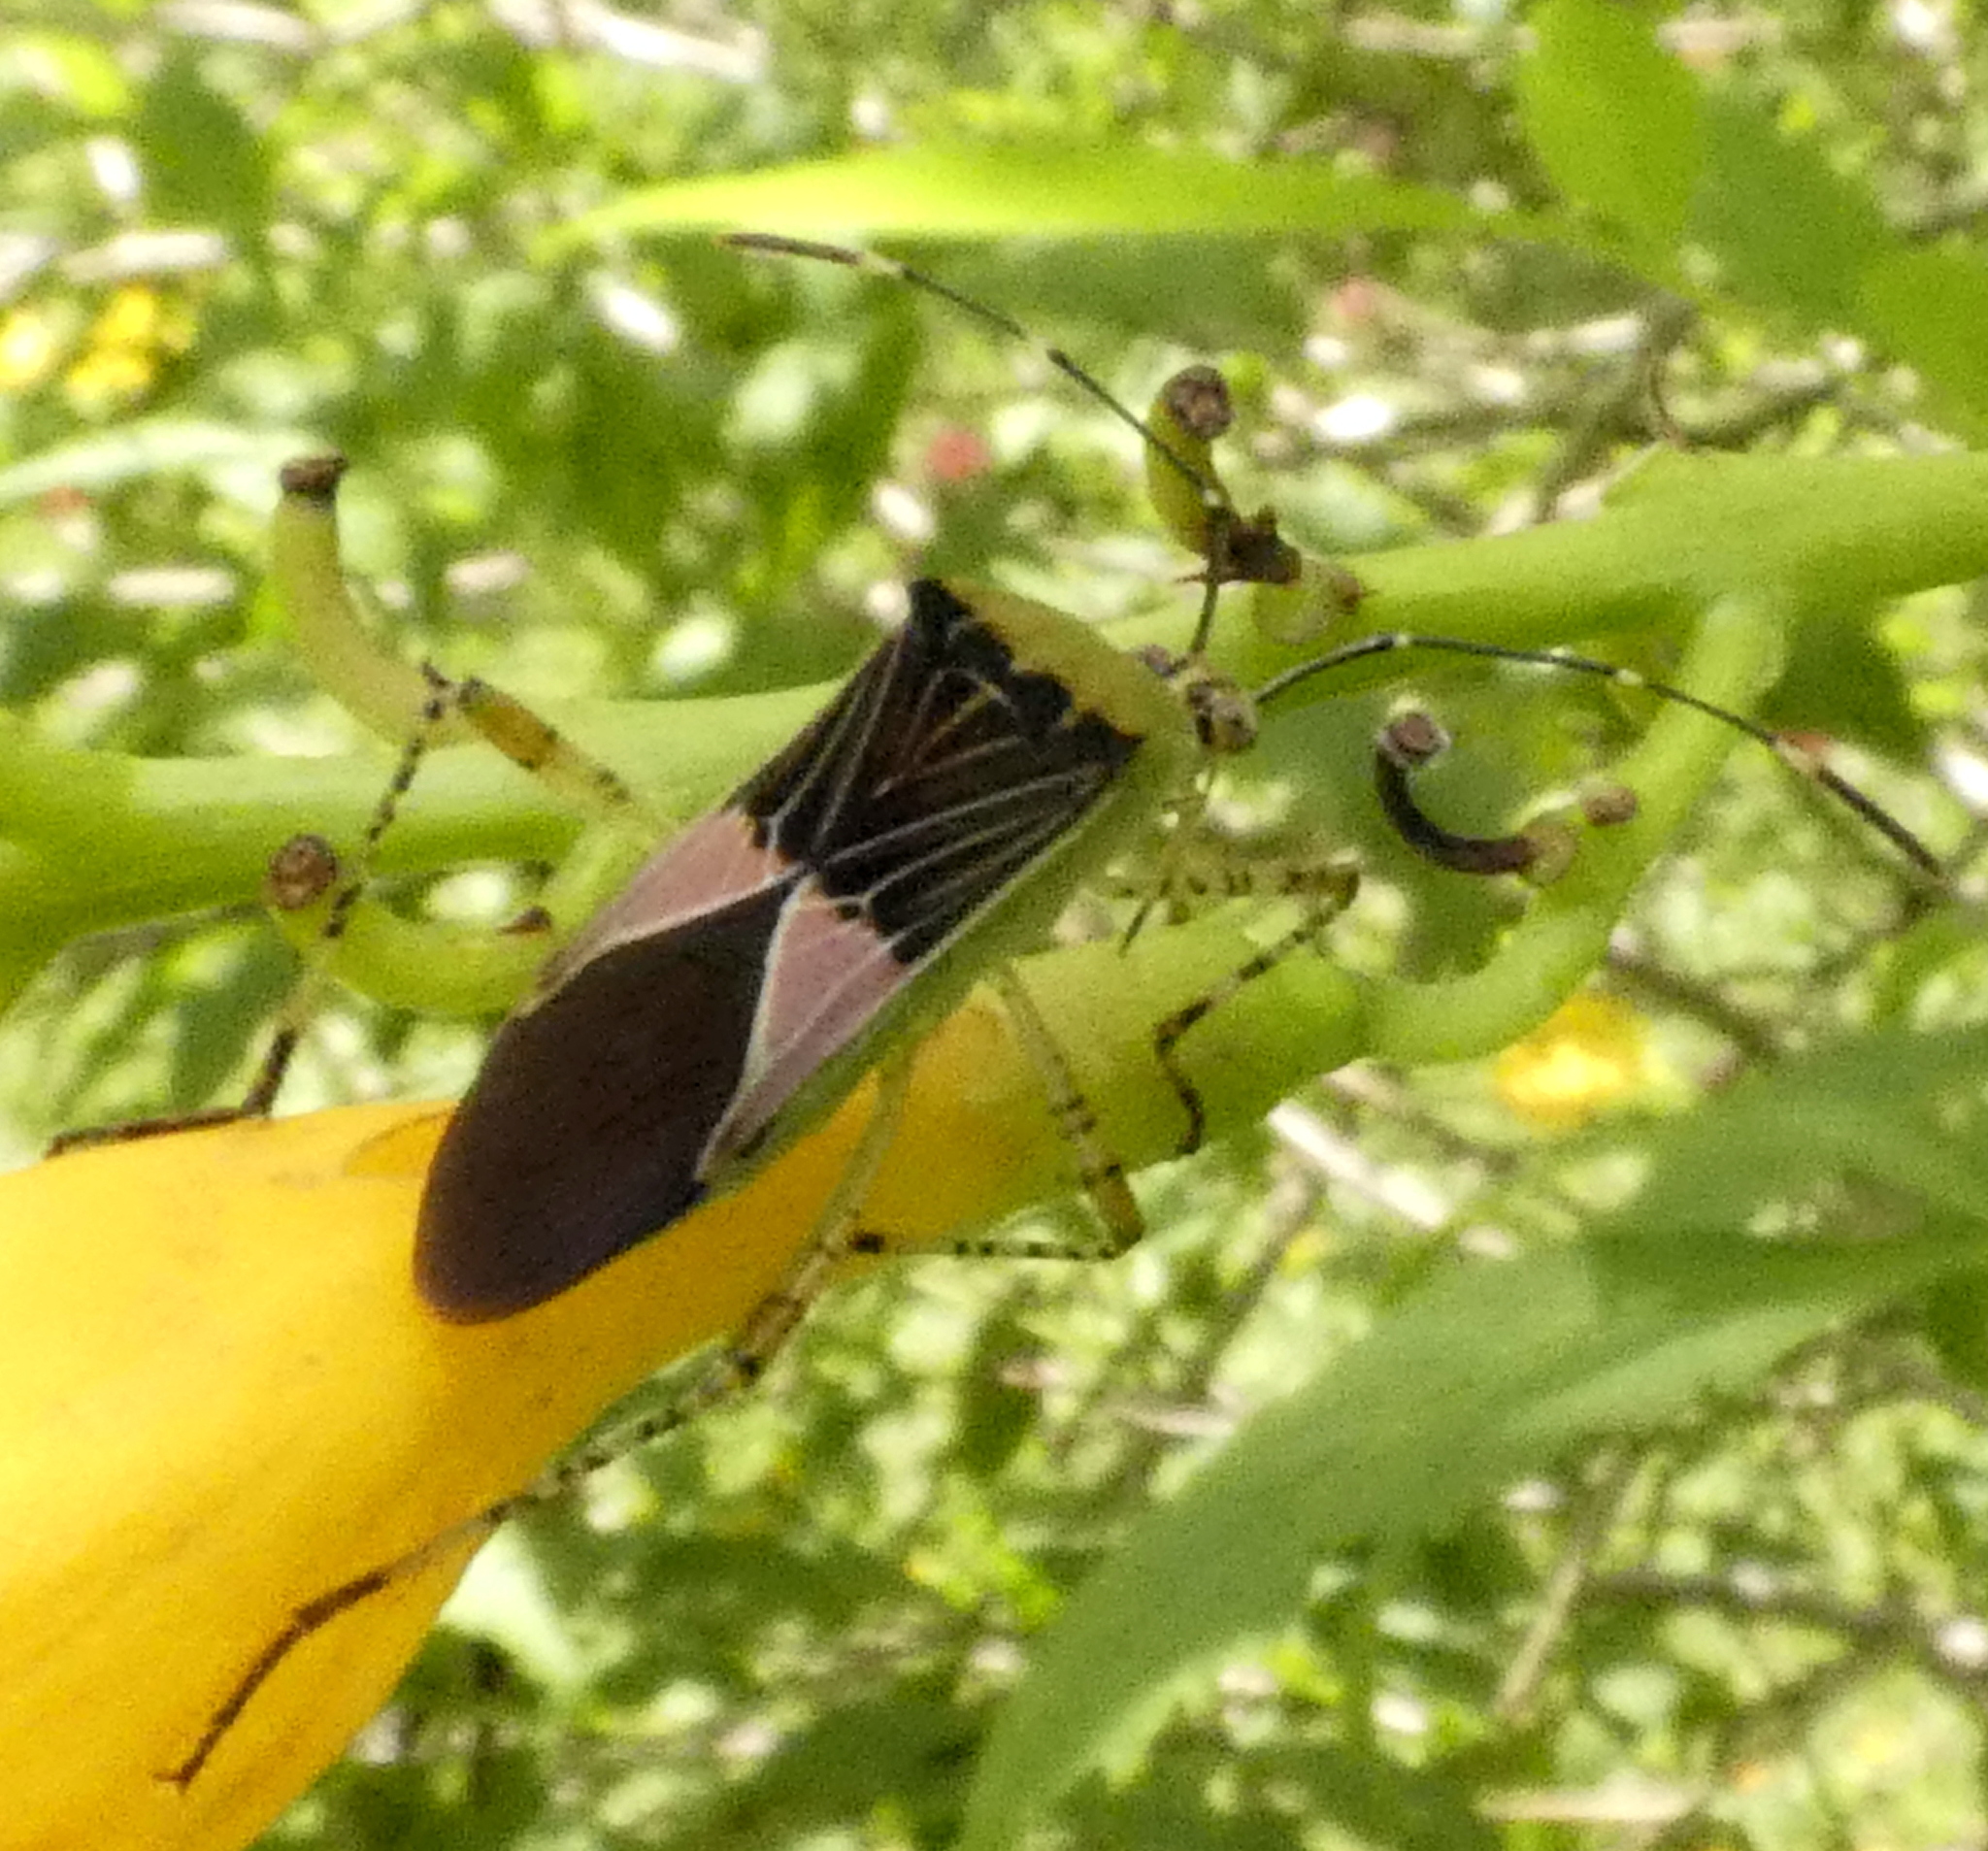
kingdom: Animalia
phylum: Arthropoda
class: Insecta
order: Hemiptera
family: Coreidae
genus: Hypselonotus
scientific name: Hypselonotus fulvus
